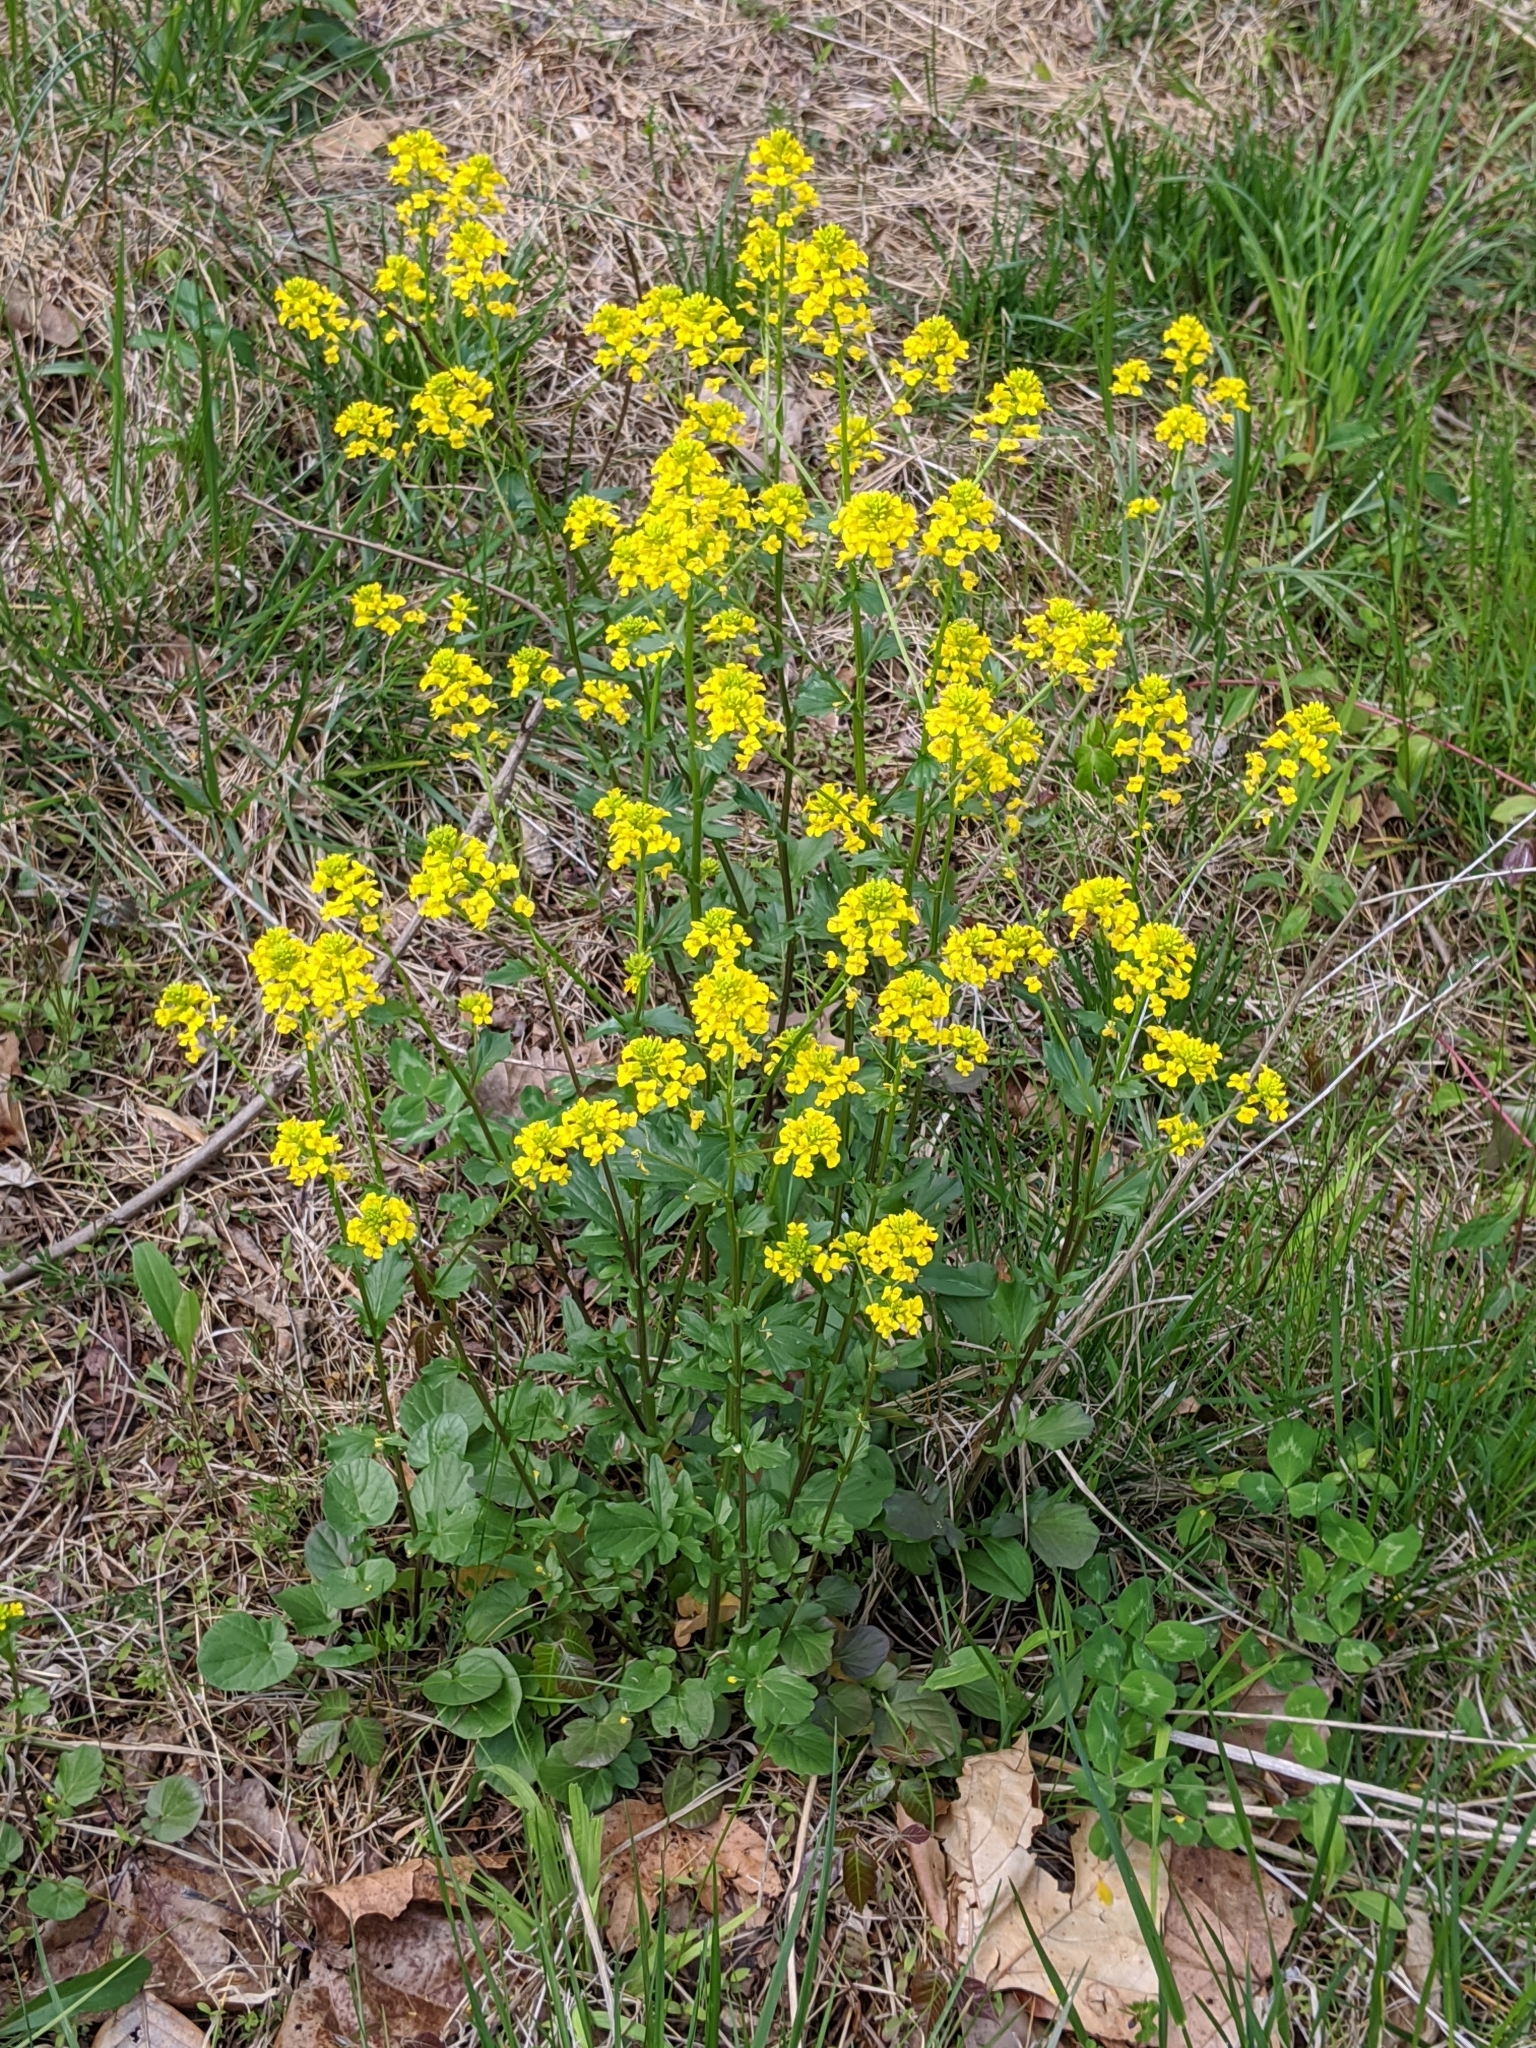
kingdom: Plantae
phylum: Tracheophyta
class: Magnoliopsida
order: Brassicales
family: Brassicaceae
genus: Barbarea
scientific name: Barbarea vulgaris
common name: Cressy-greens
